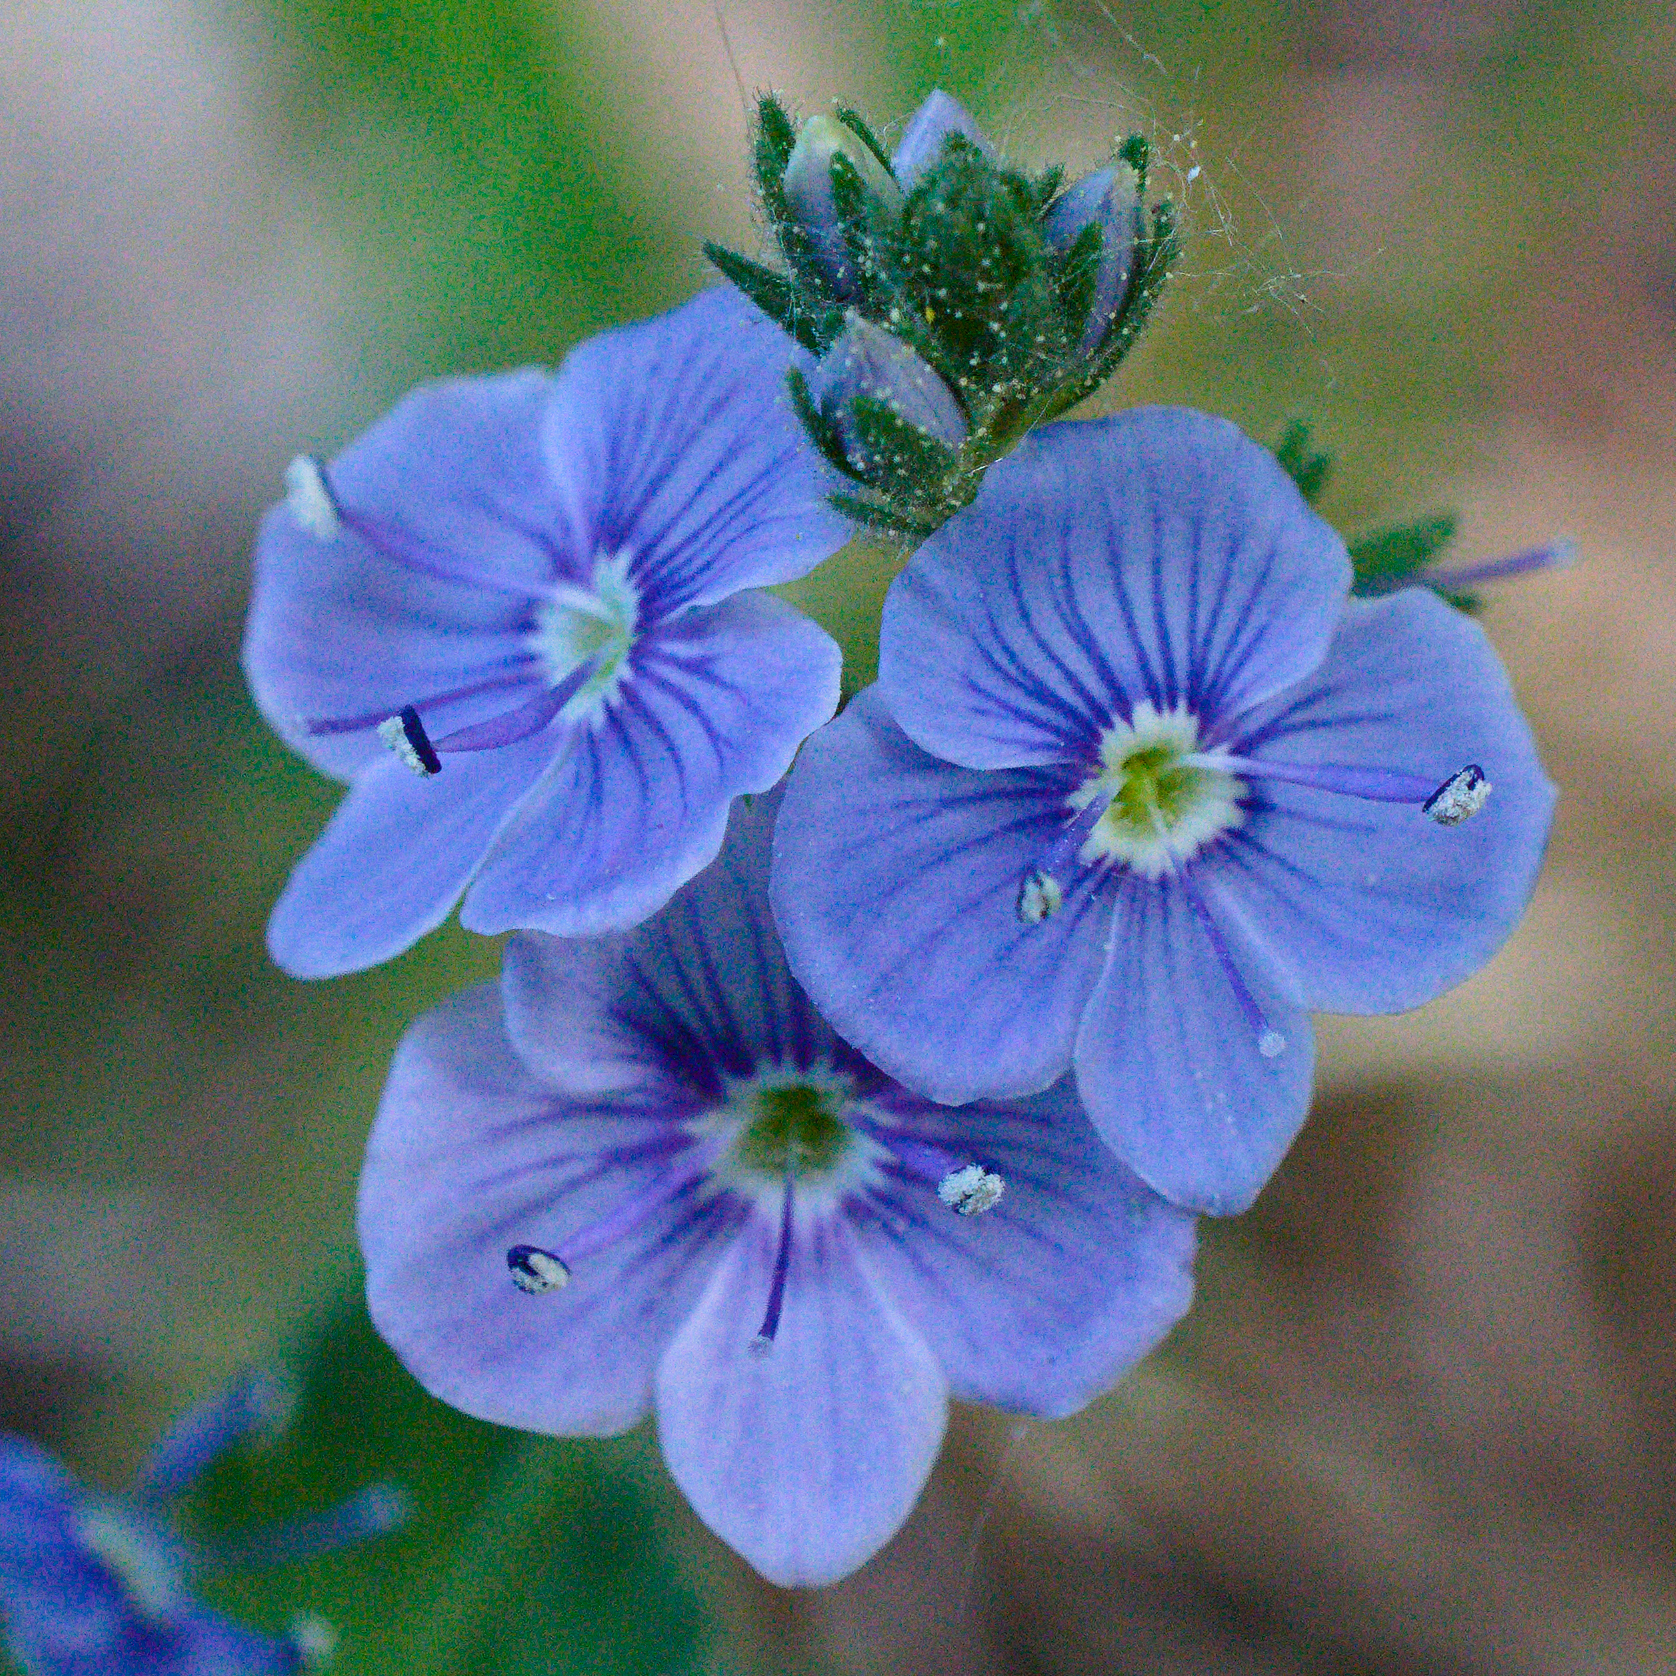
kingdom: Plantae
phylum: Tracheophyta
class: Magnoliopsida
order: Lamiales
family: Plantaginaceae
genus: Veronica
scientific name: Veronica chamaedrys
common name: Germander speedwell
